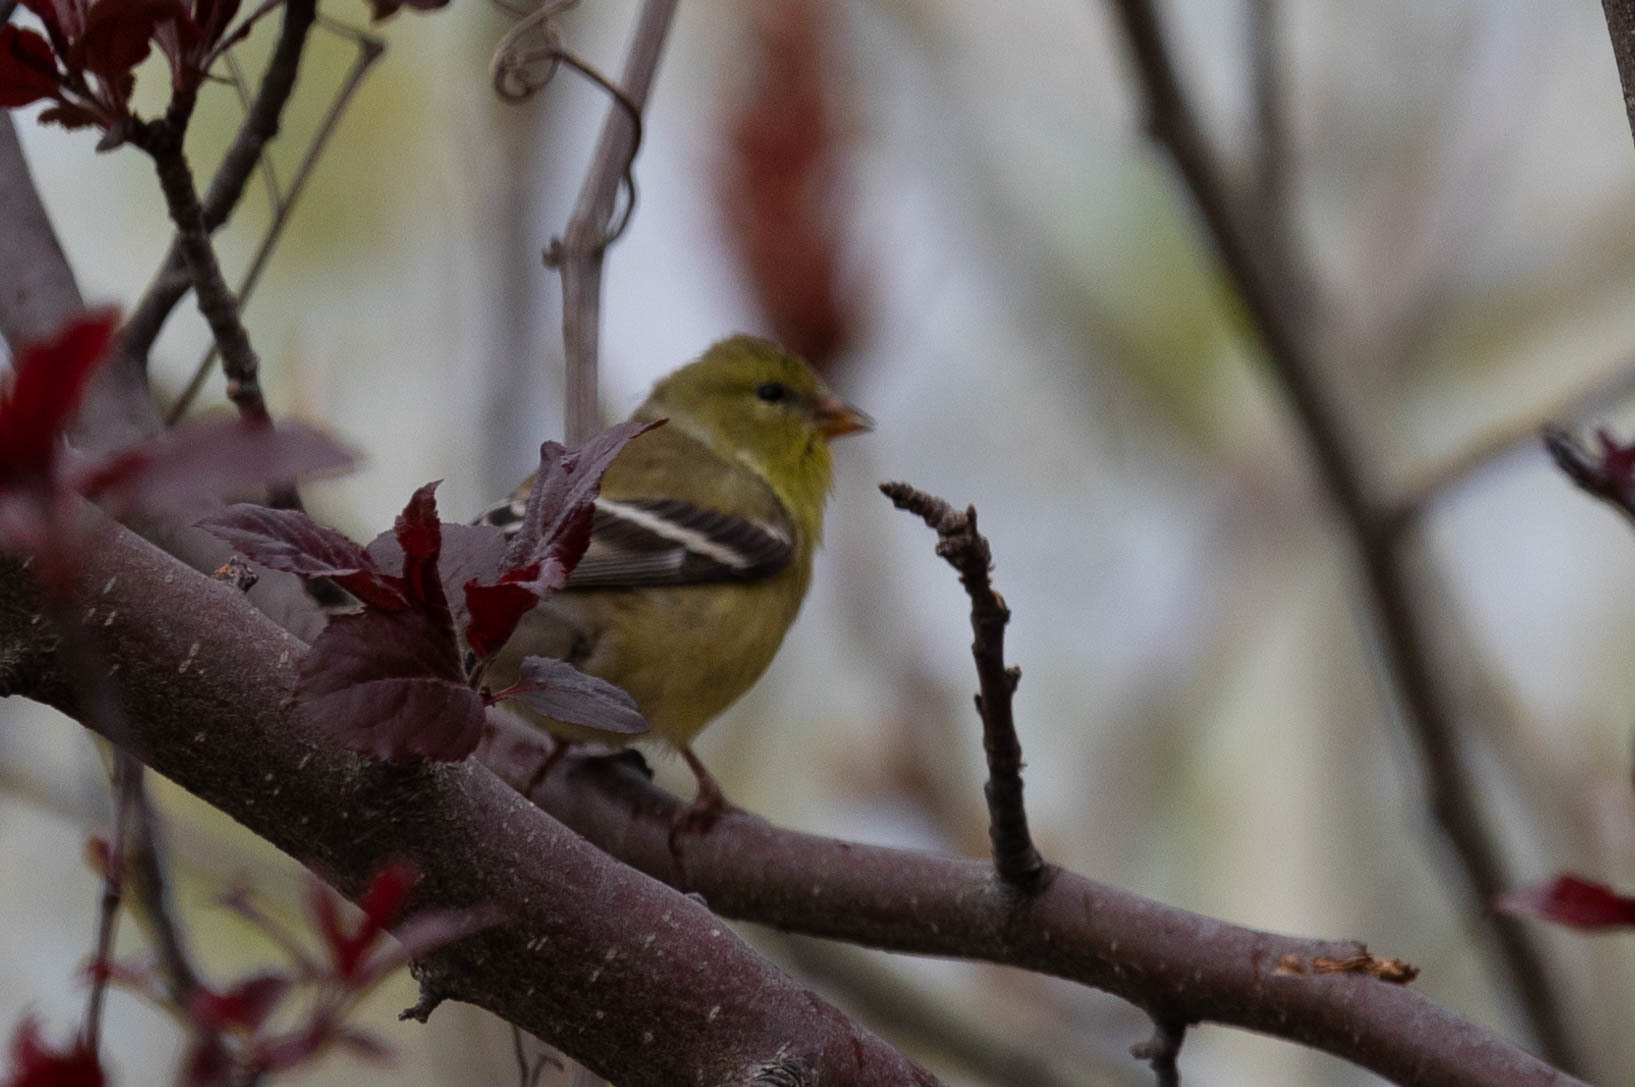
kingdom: Animalia
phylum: Chordata
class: Aves
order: Passeriformes
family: Fringillidae
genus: Spinus
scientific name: Spinus tristis
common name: American goldfinch
